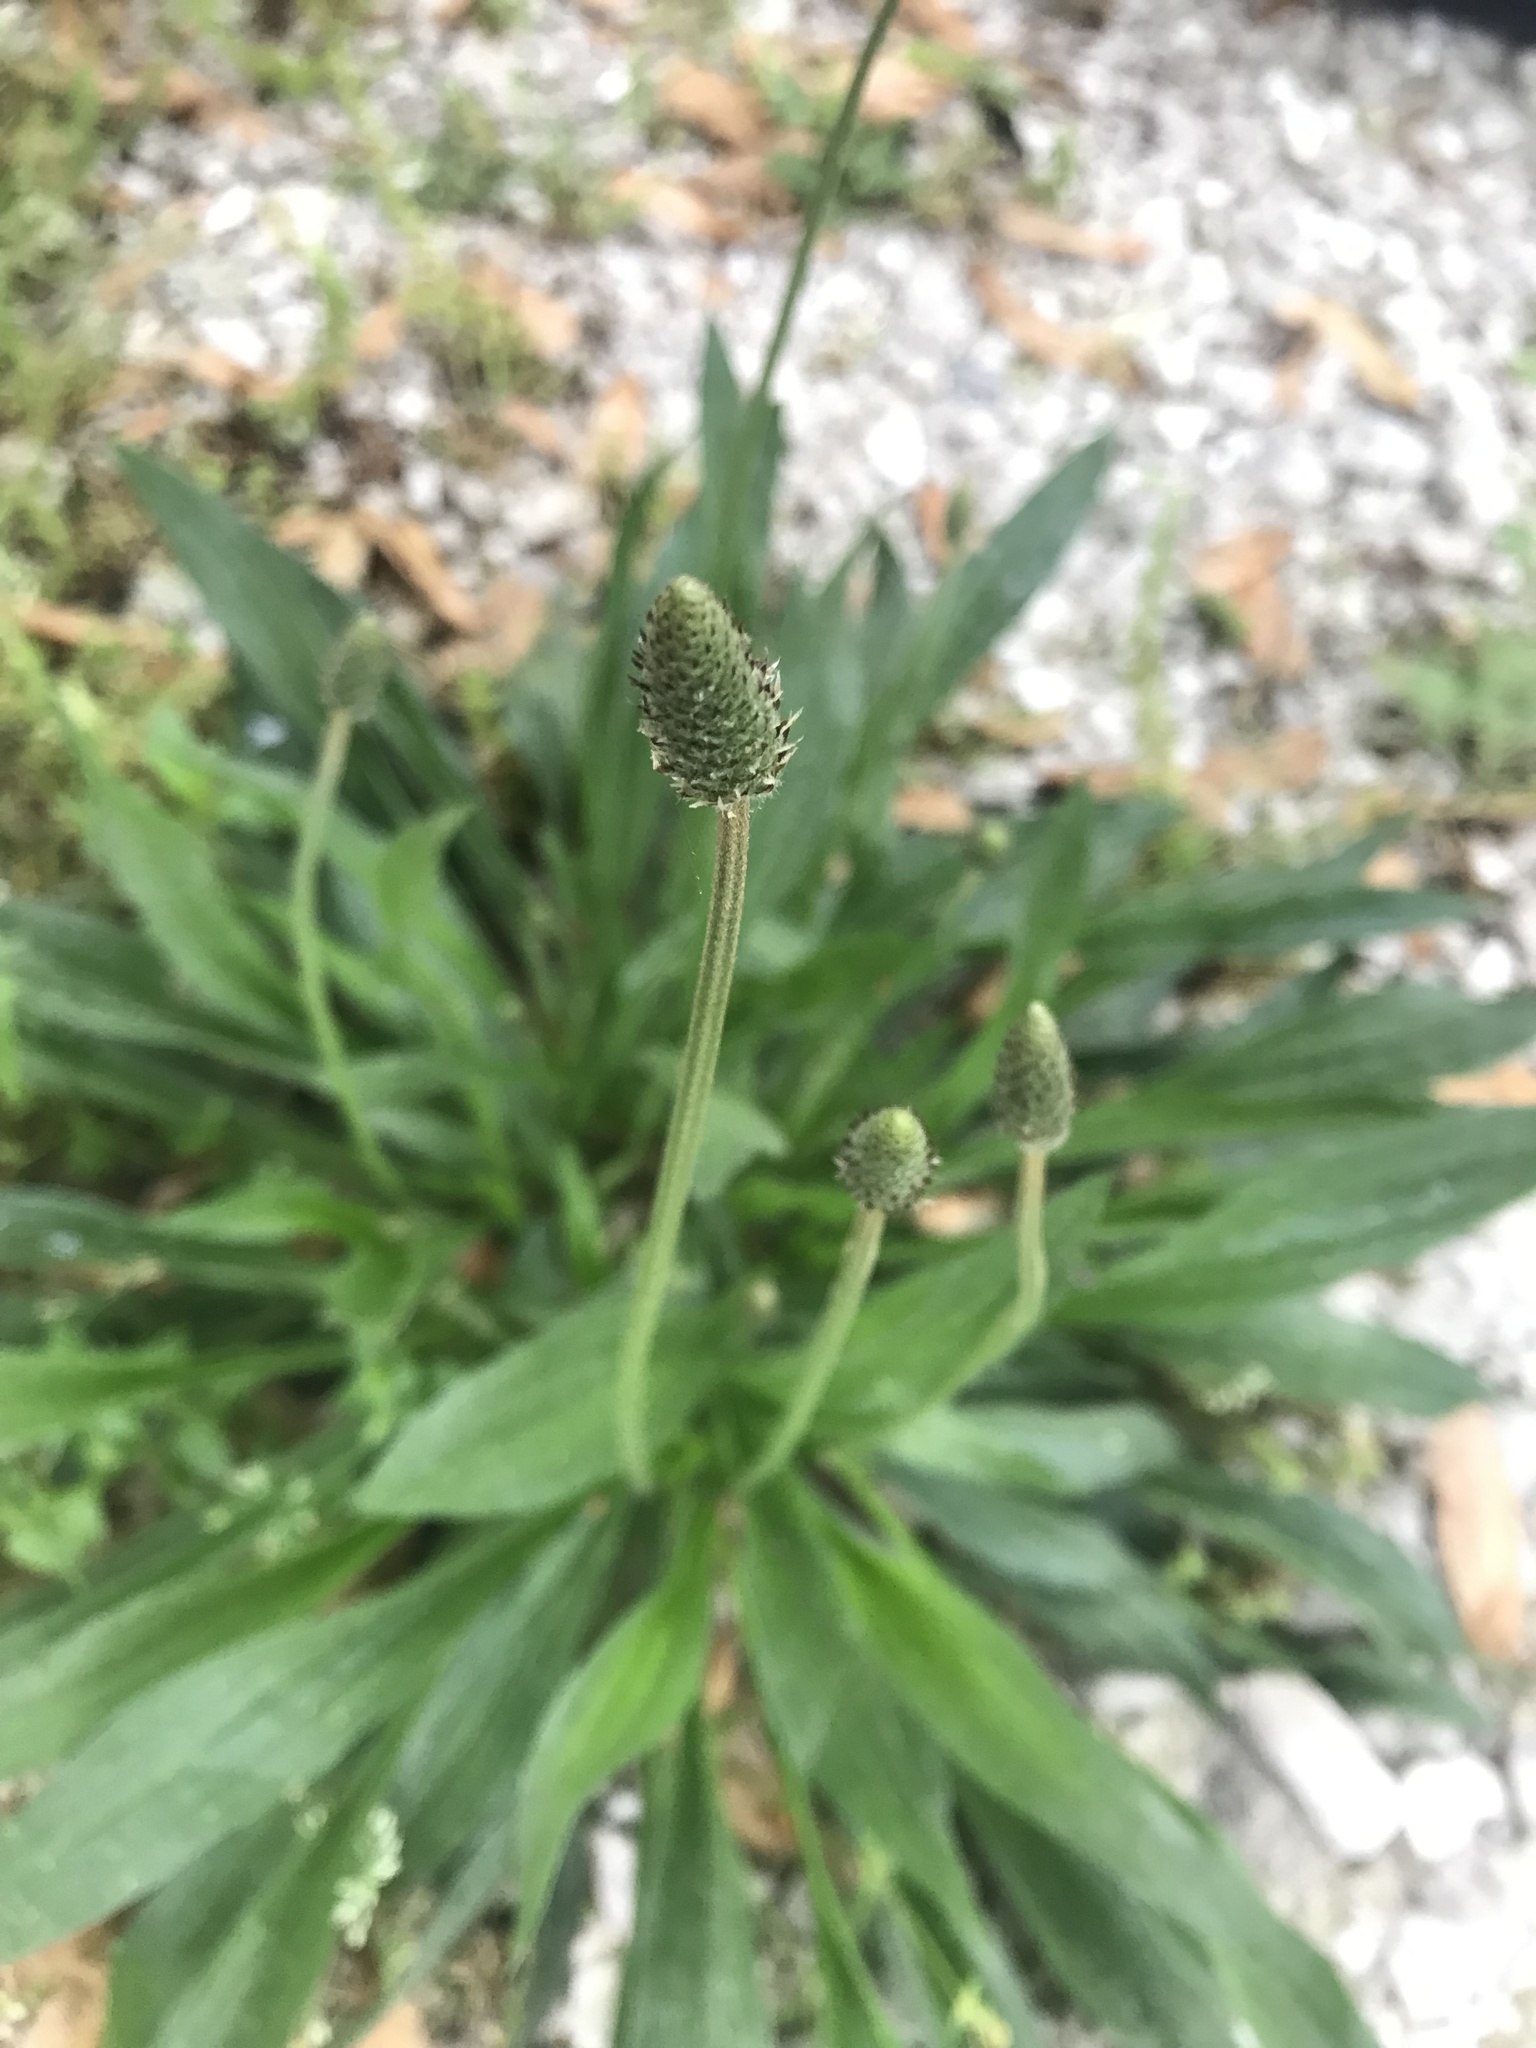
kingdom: Plantae
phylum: Tracheophyta
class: Magnoliopsida
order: Lamiales
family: Plantaginaceae
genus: Plantago
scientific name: Plantago lanceolata
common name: Ribwort plantain
